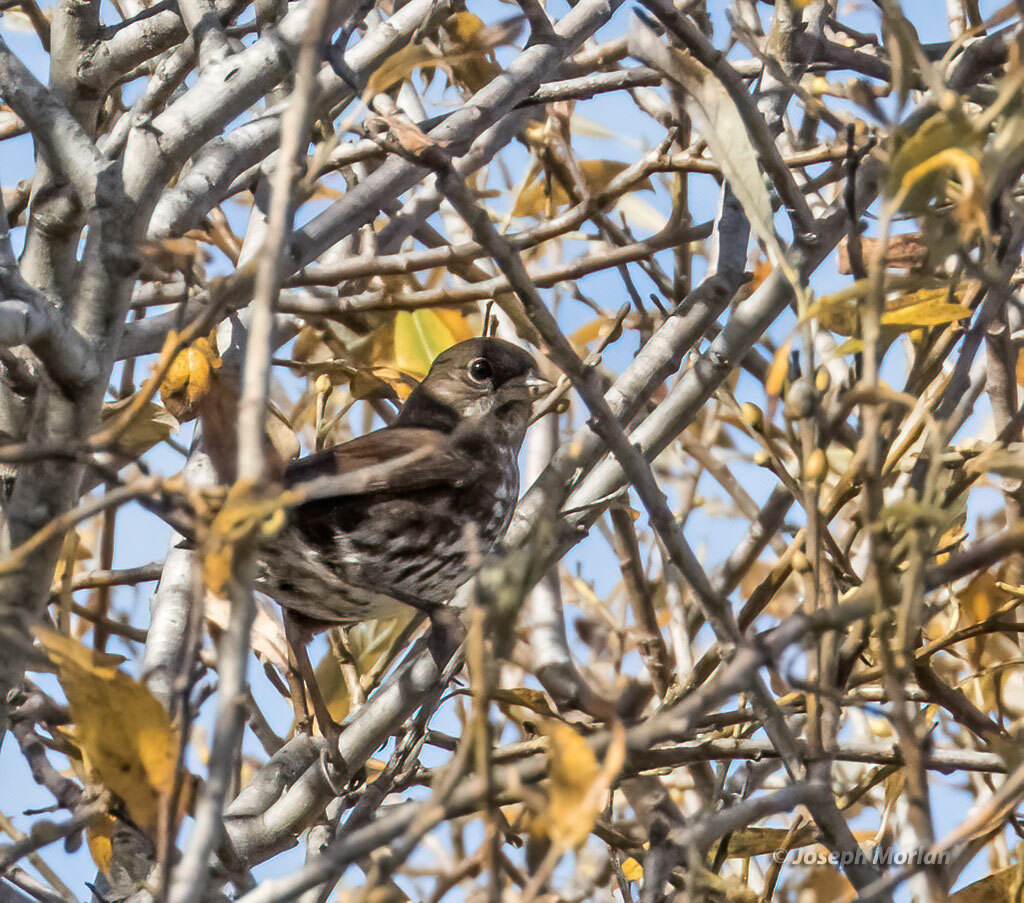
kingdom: Animalia
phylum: Chordata
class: Aves
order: Passeriformes
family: Passerellidae
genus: Passerella
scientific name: Passerella iliaca
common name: Fox sparrow
